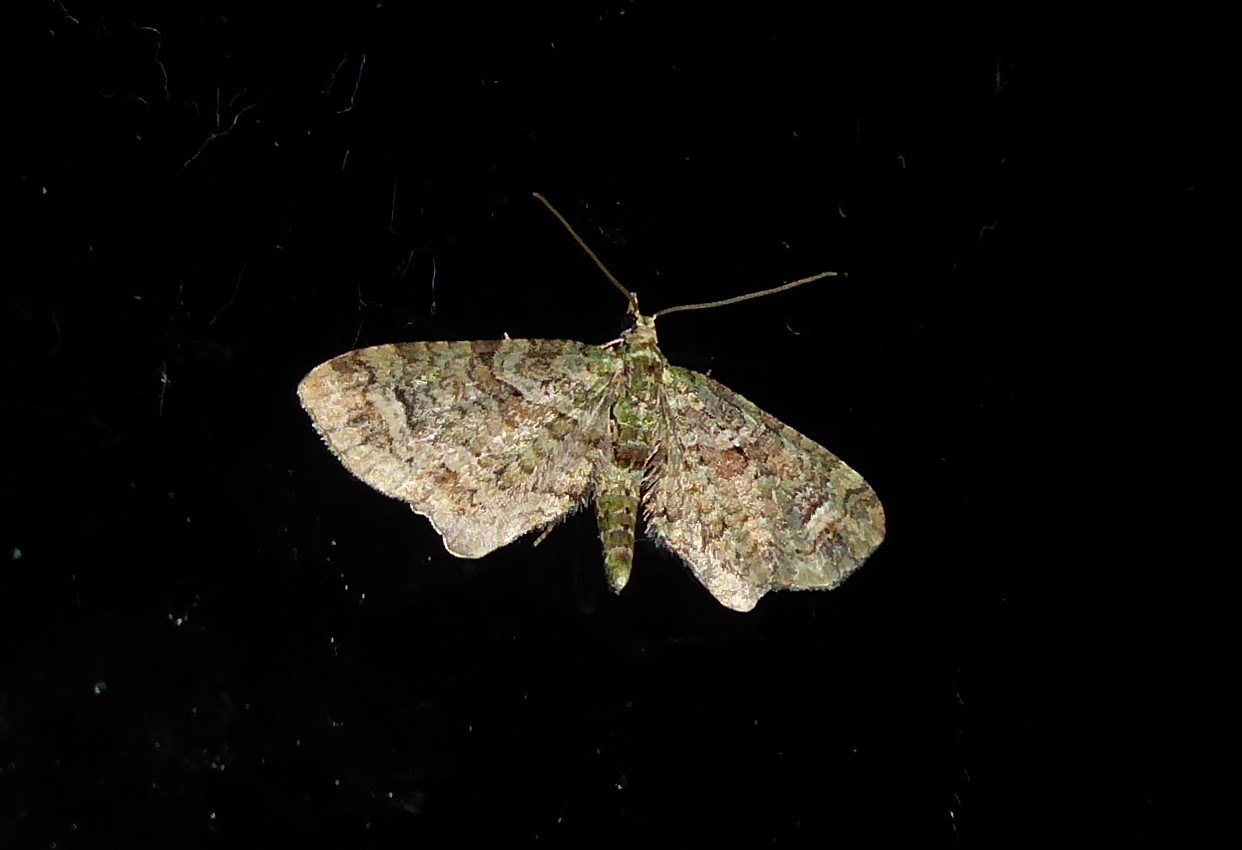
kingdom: Animalia
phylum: Arthropoda
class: Insecta
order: Lepidoptera
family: Geometridae
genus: Idaea
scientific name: Idaea mutanda
